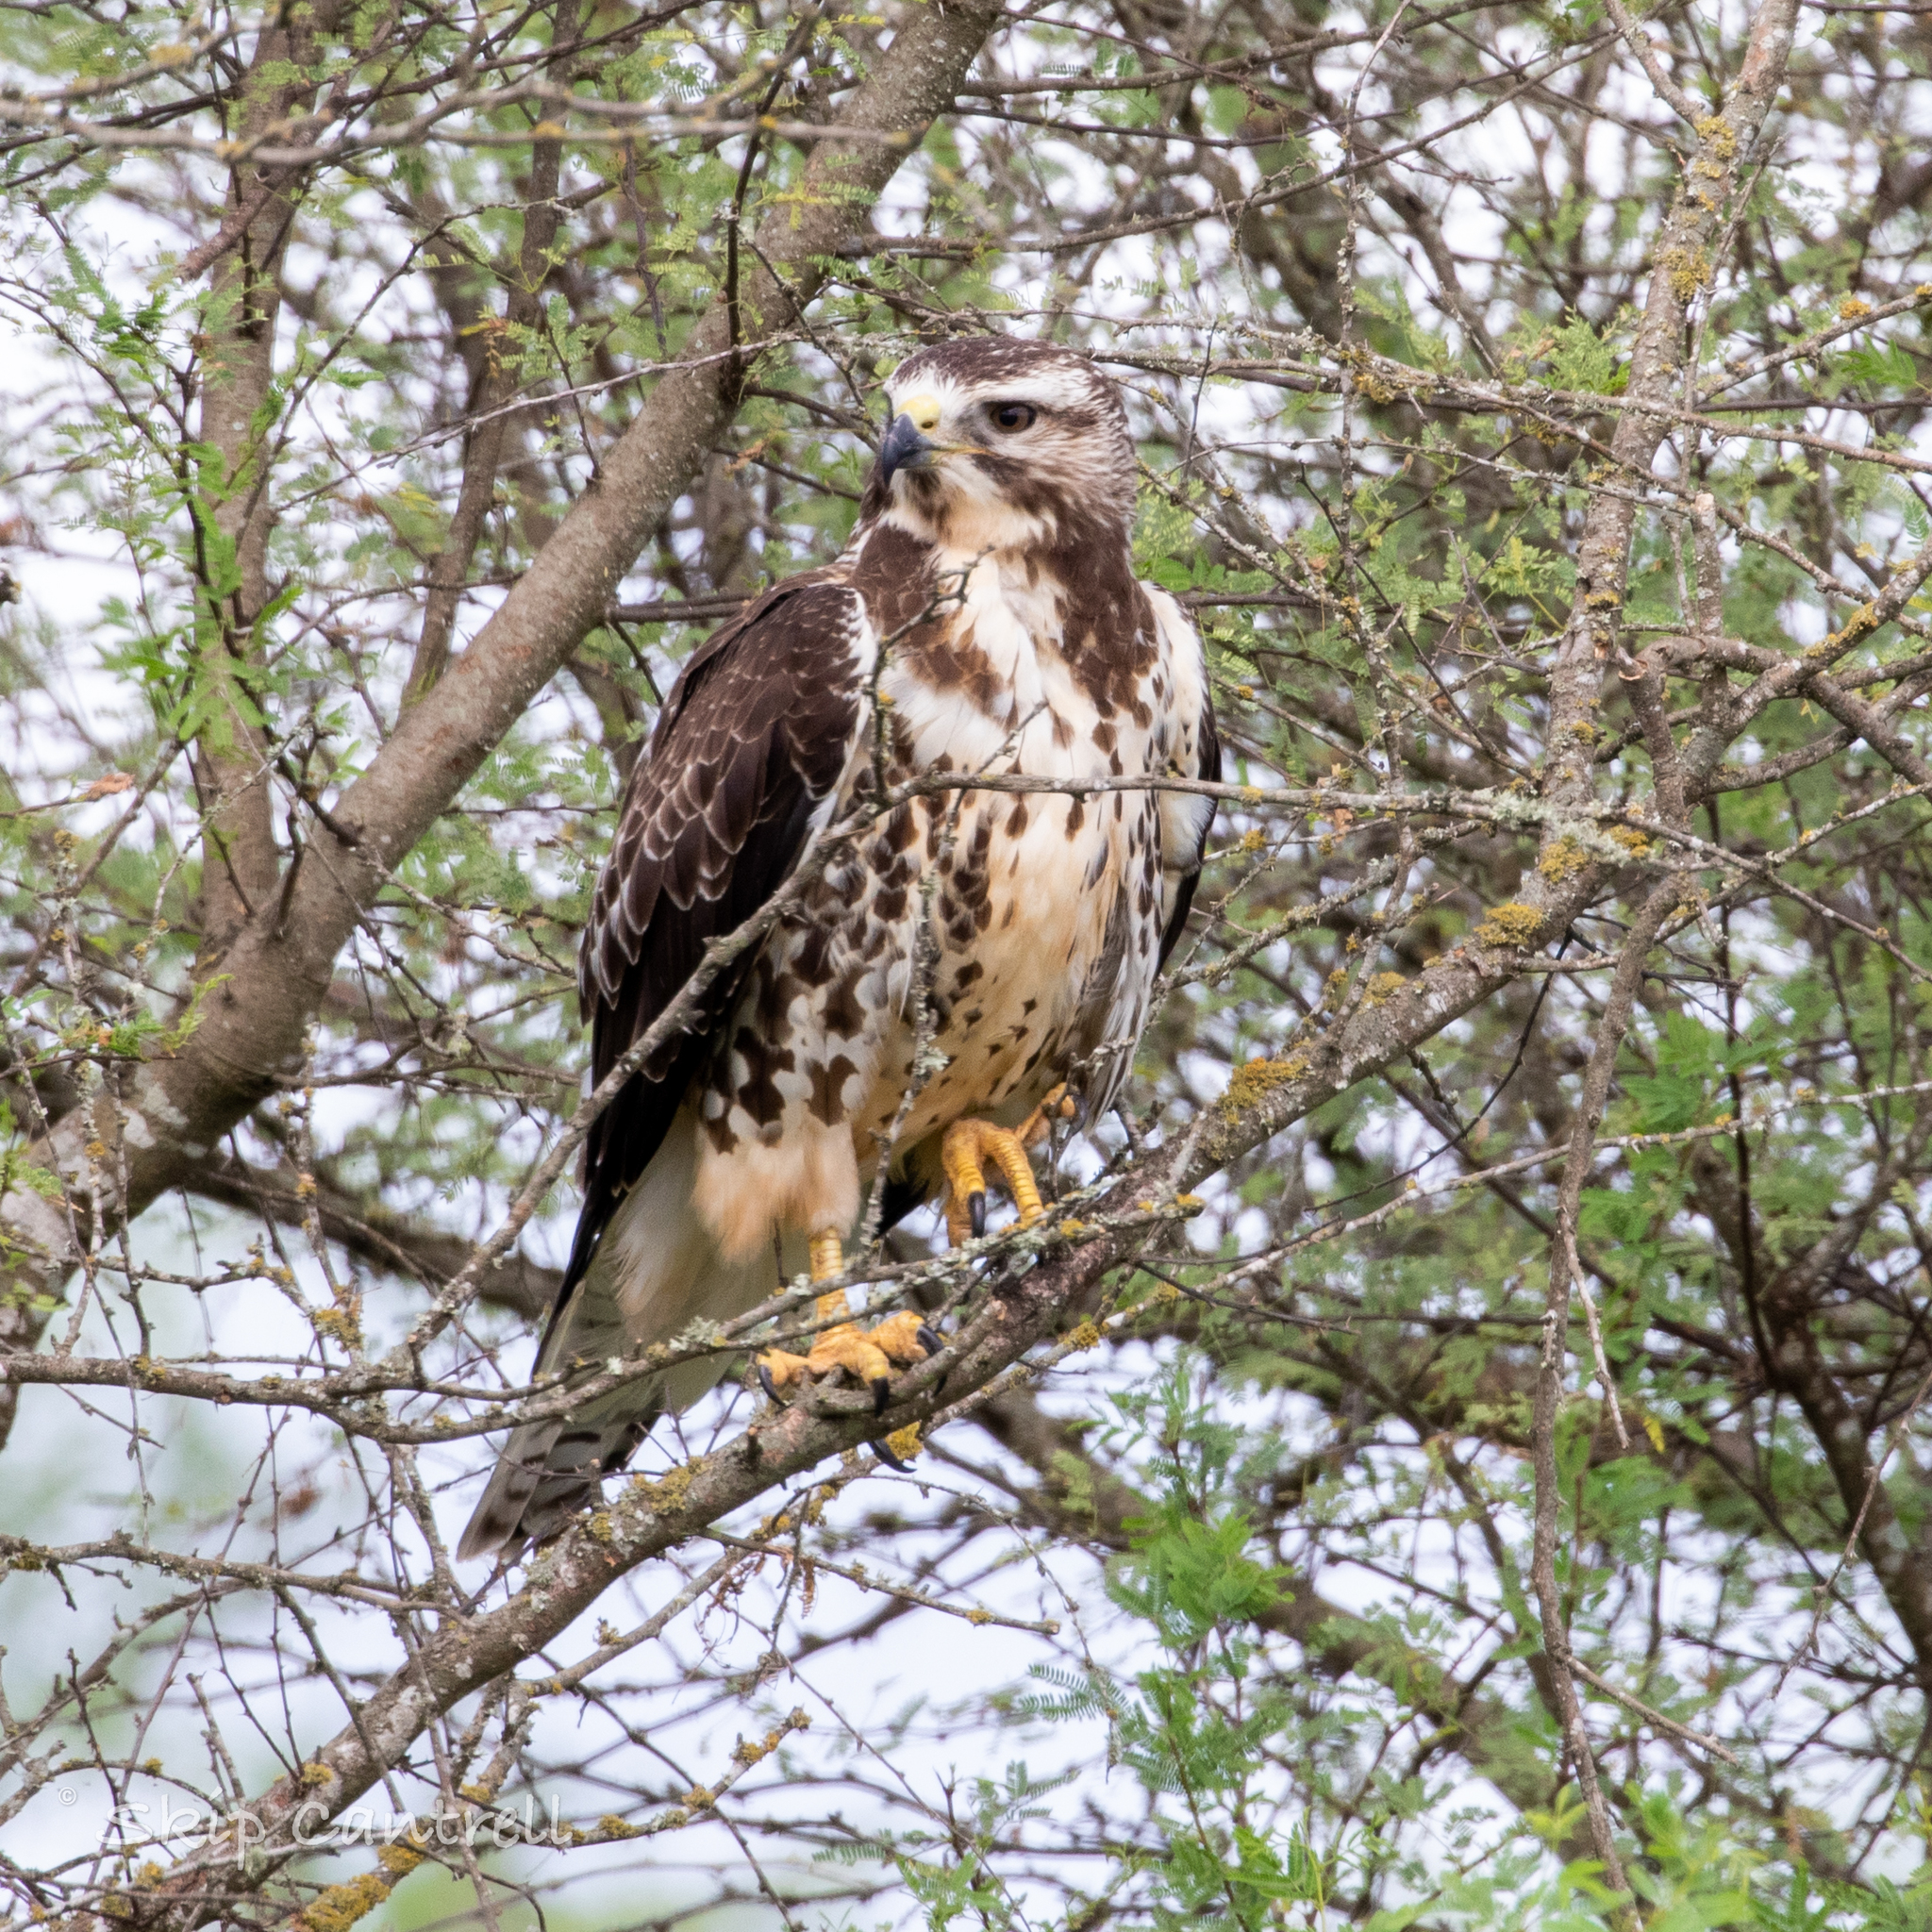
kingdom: Animalia
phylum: Chordata
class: Aves
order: Accipitriformes
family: Accipitridae
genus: Buteo
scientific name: Buteo swainsoni
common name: Swainson's hawk
